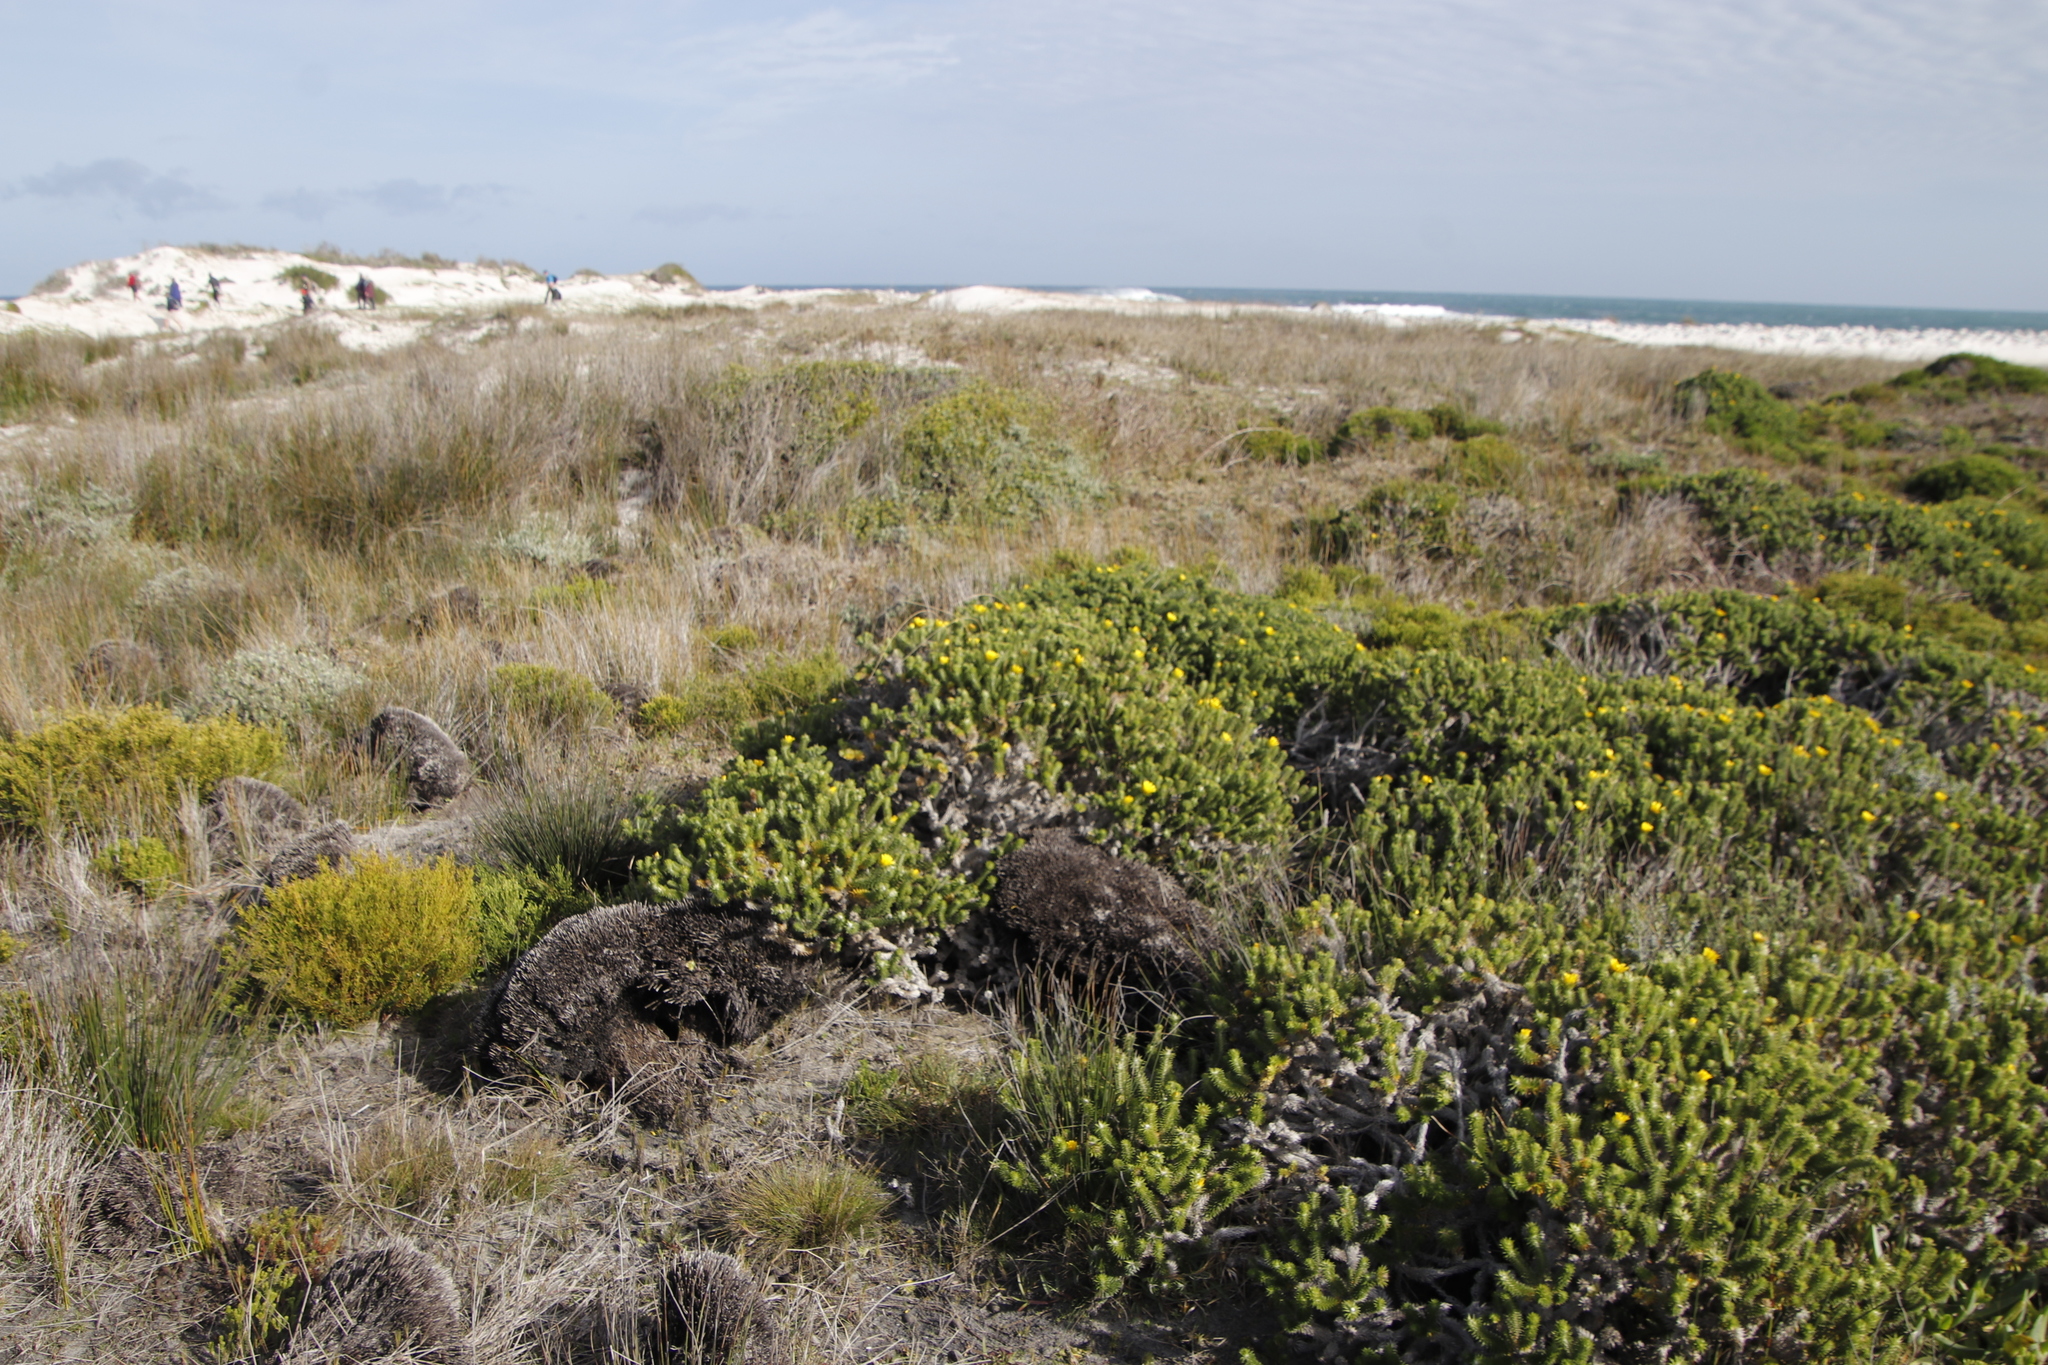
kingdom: Plantae
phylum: Tracheophyta
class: Magnoliopsida
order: Asterales
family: Asteraceae
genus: Cullumia
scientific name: Cullumia squarrosa
